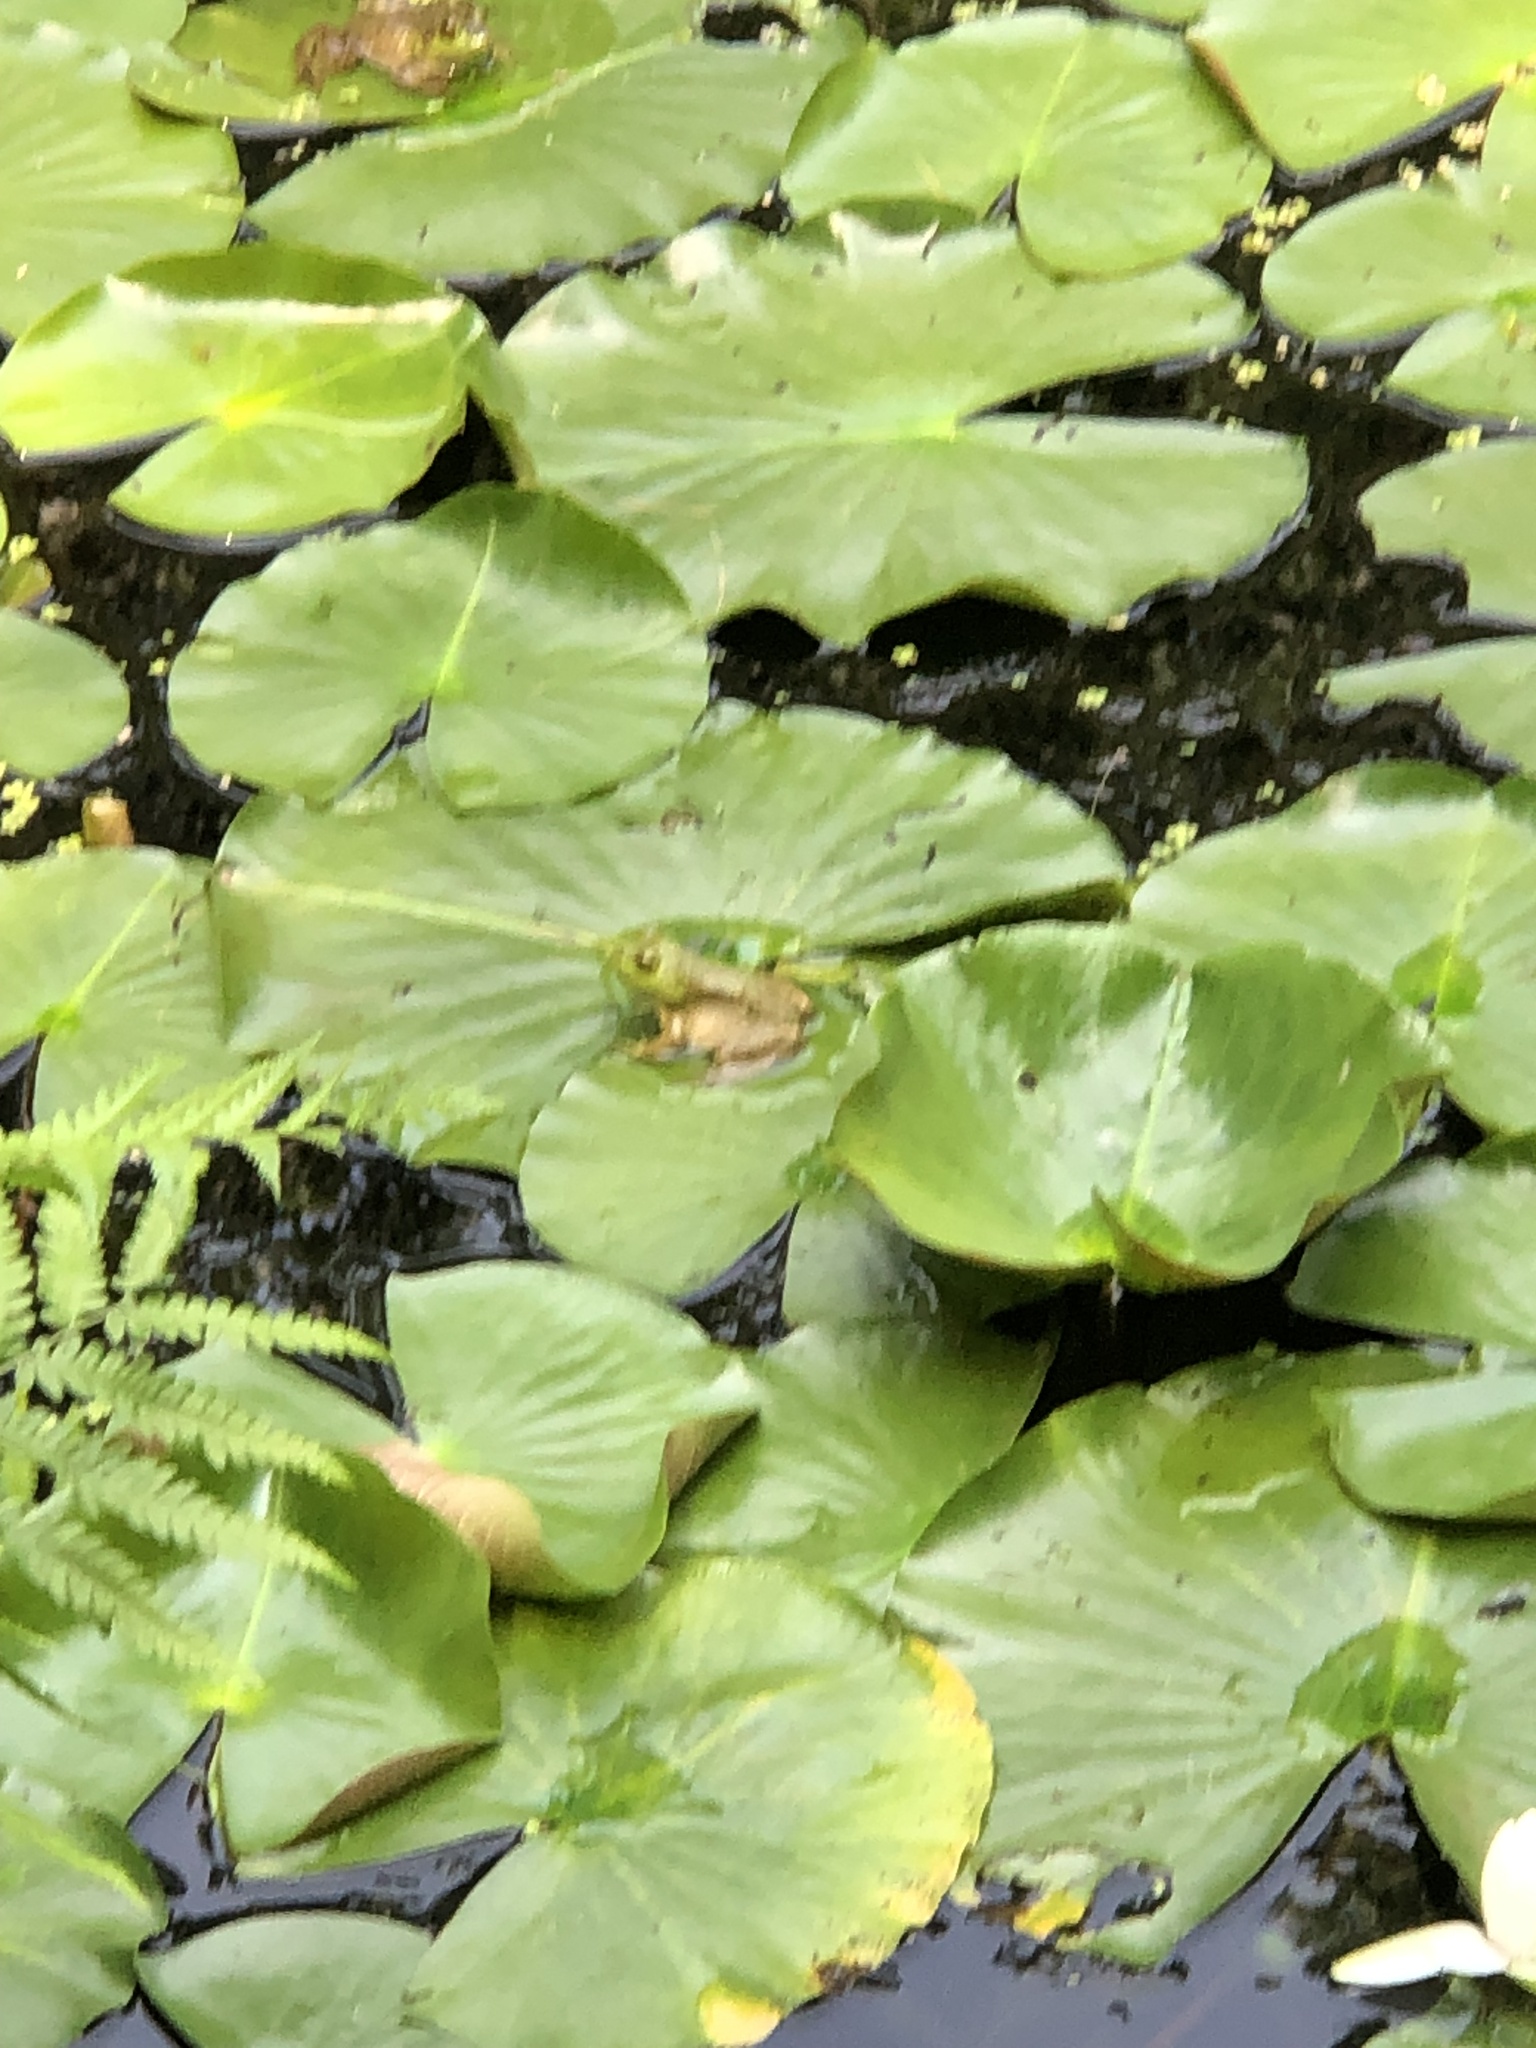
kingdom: Animalia
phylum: Chordata
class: Amphibia
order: Anura
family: Ranidae
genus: Lithobates
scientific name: Lithobates catesbeianus
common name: American bullfrog
